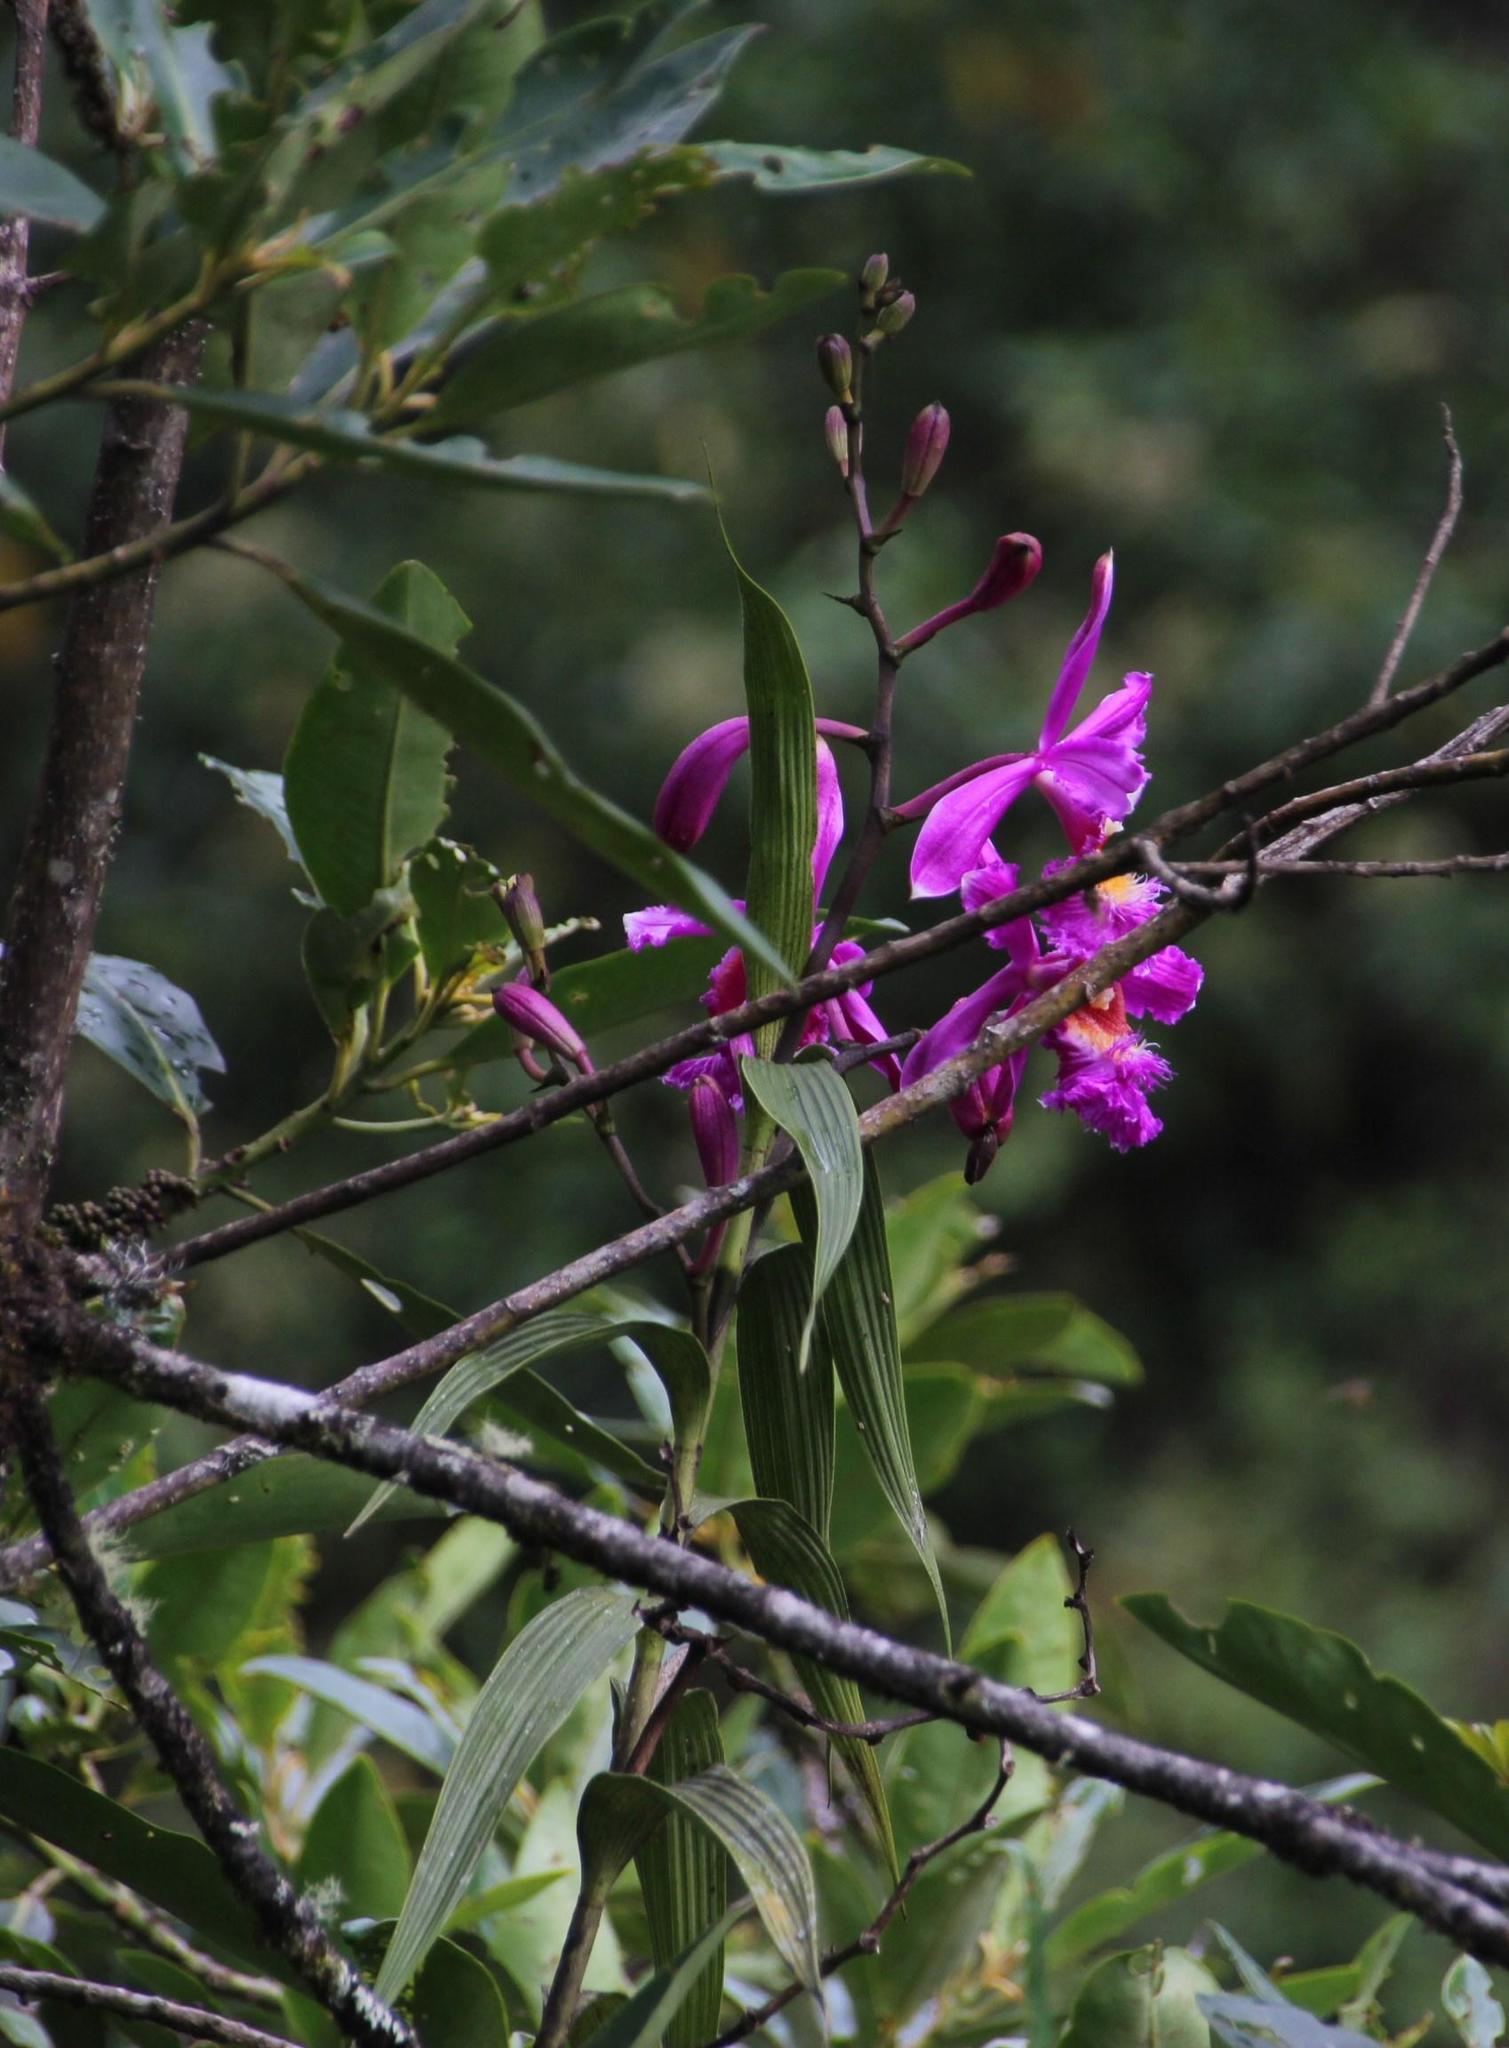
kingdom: Plantae
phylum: Tracheophyta
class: Liliopsida
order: Asparagales
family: Orchidaceae
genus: Sobralia
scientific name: Sobralia dichotoma
